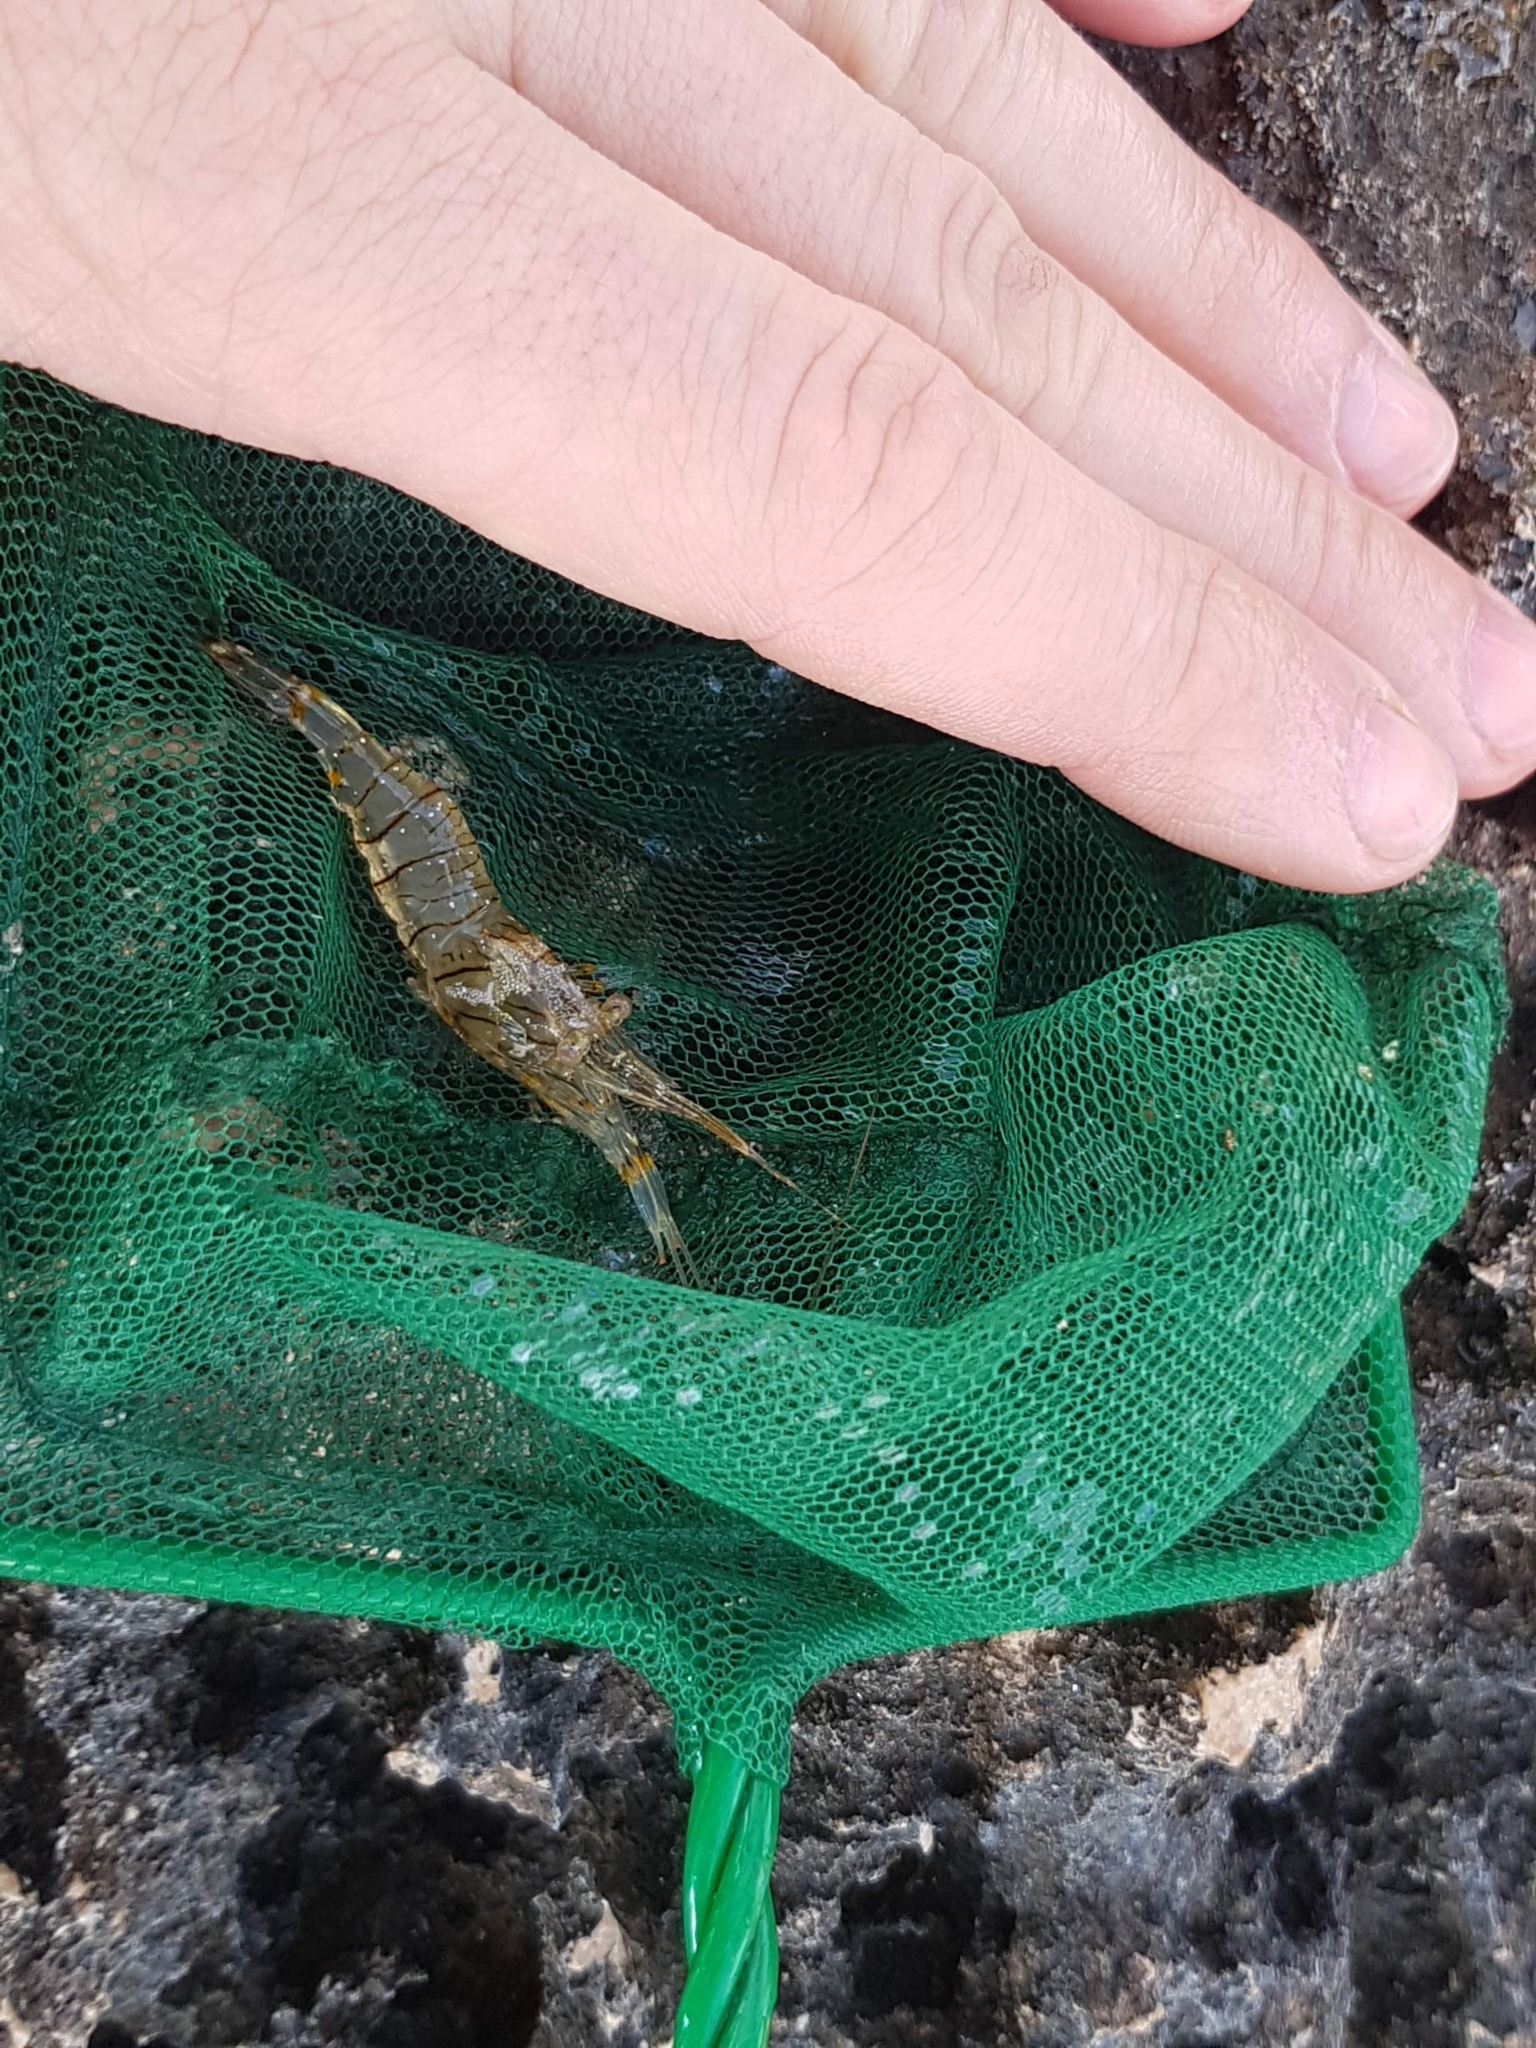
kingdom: Animalia
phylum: Arthropoda
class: Malacostraca
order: Decapoda
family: Palaemonidae
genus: Palaemon
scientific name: Palaemon elegans
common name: Grass prawm
